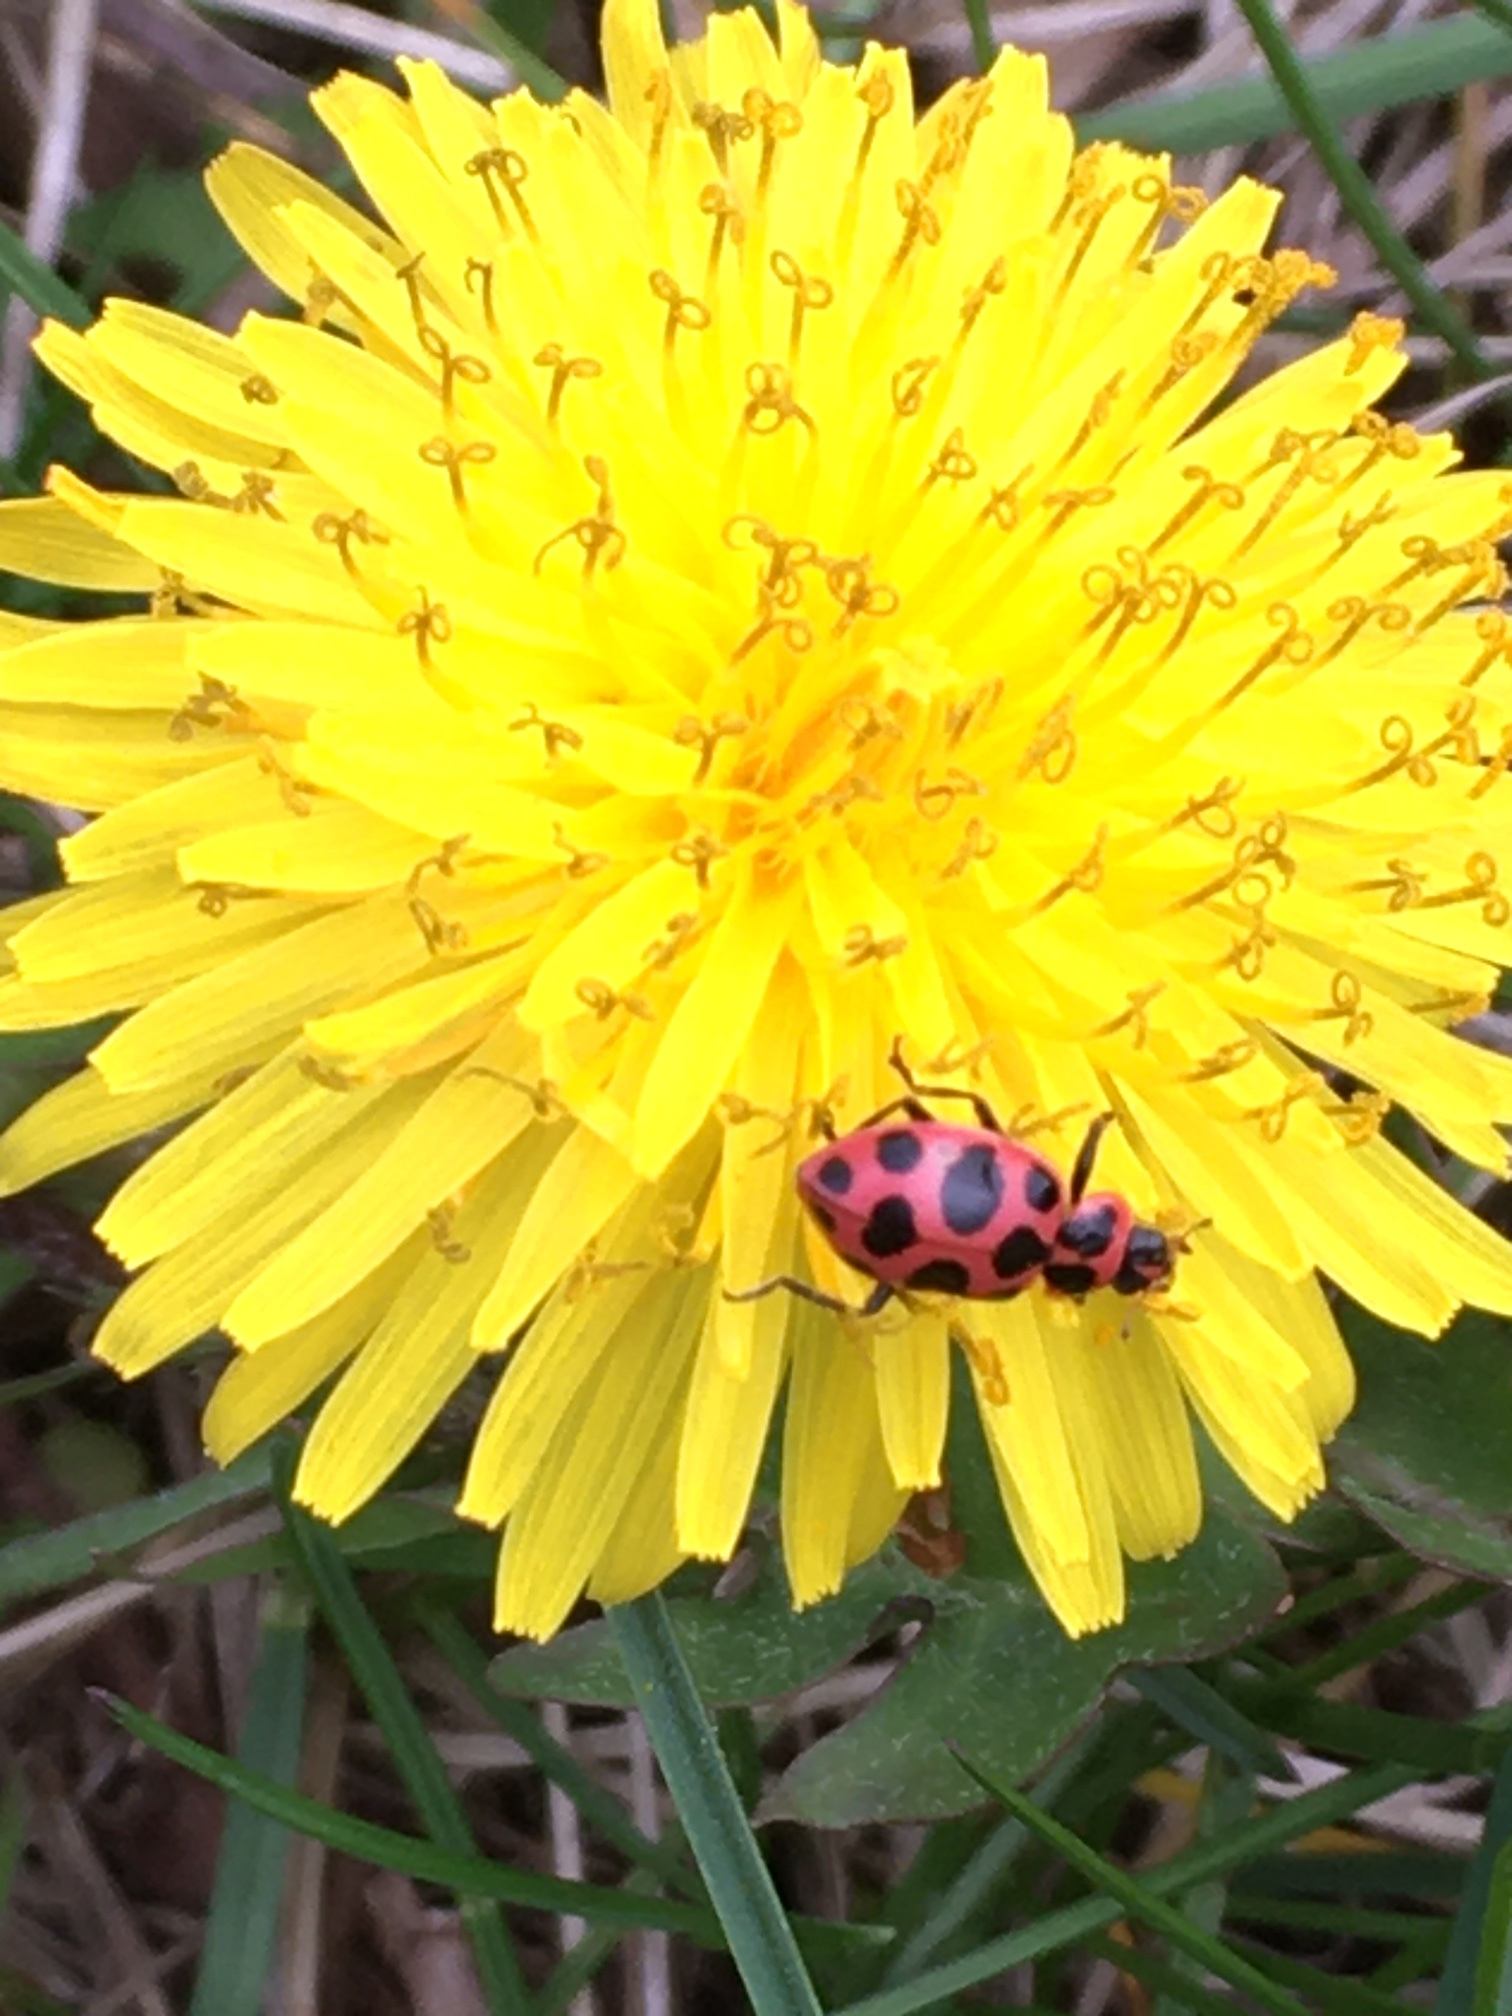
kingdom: Animalia
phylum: Arthropoda
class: Insecta
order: Coleoptera
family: Coccinellidae
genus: Coleomegilla
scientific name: Coleomegilla maculata
